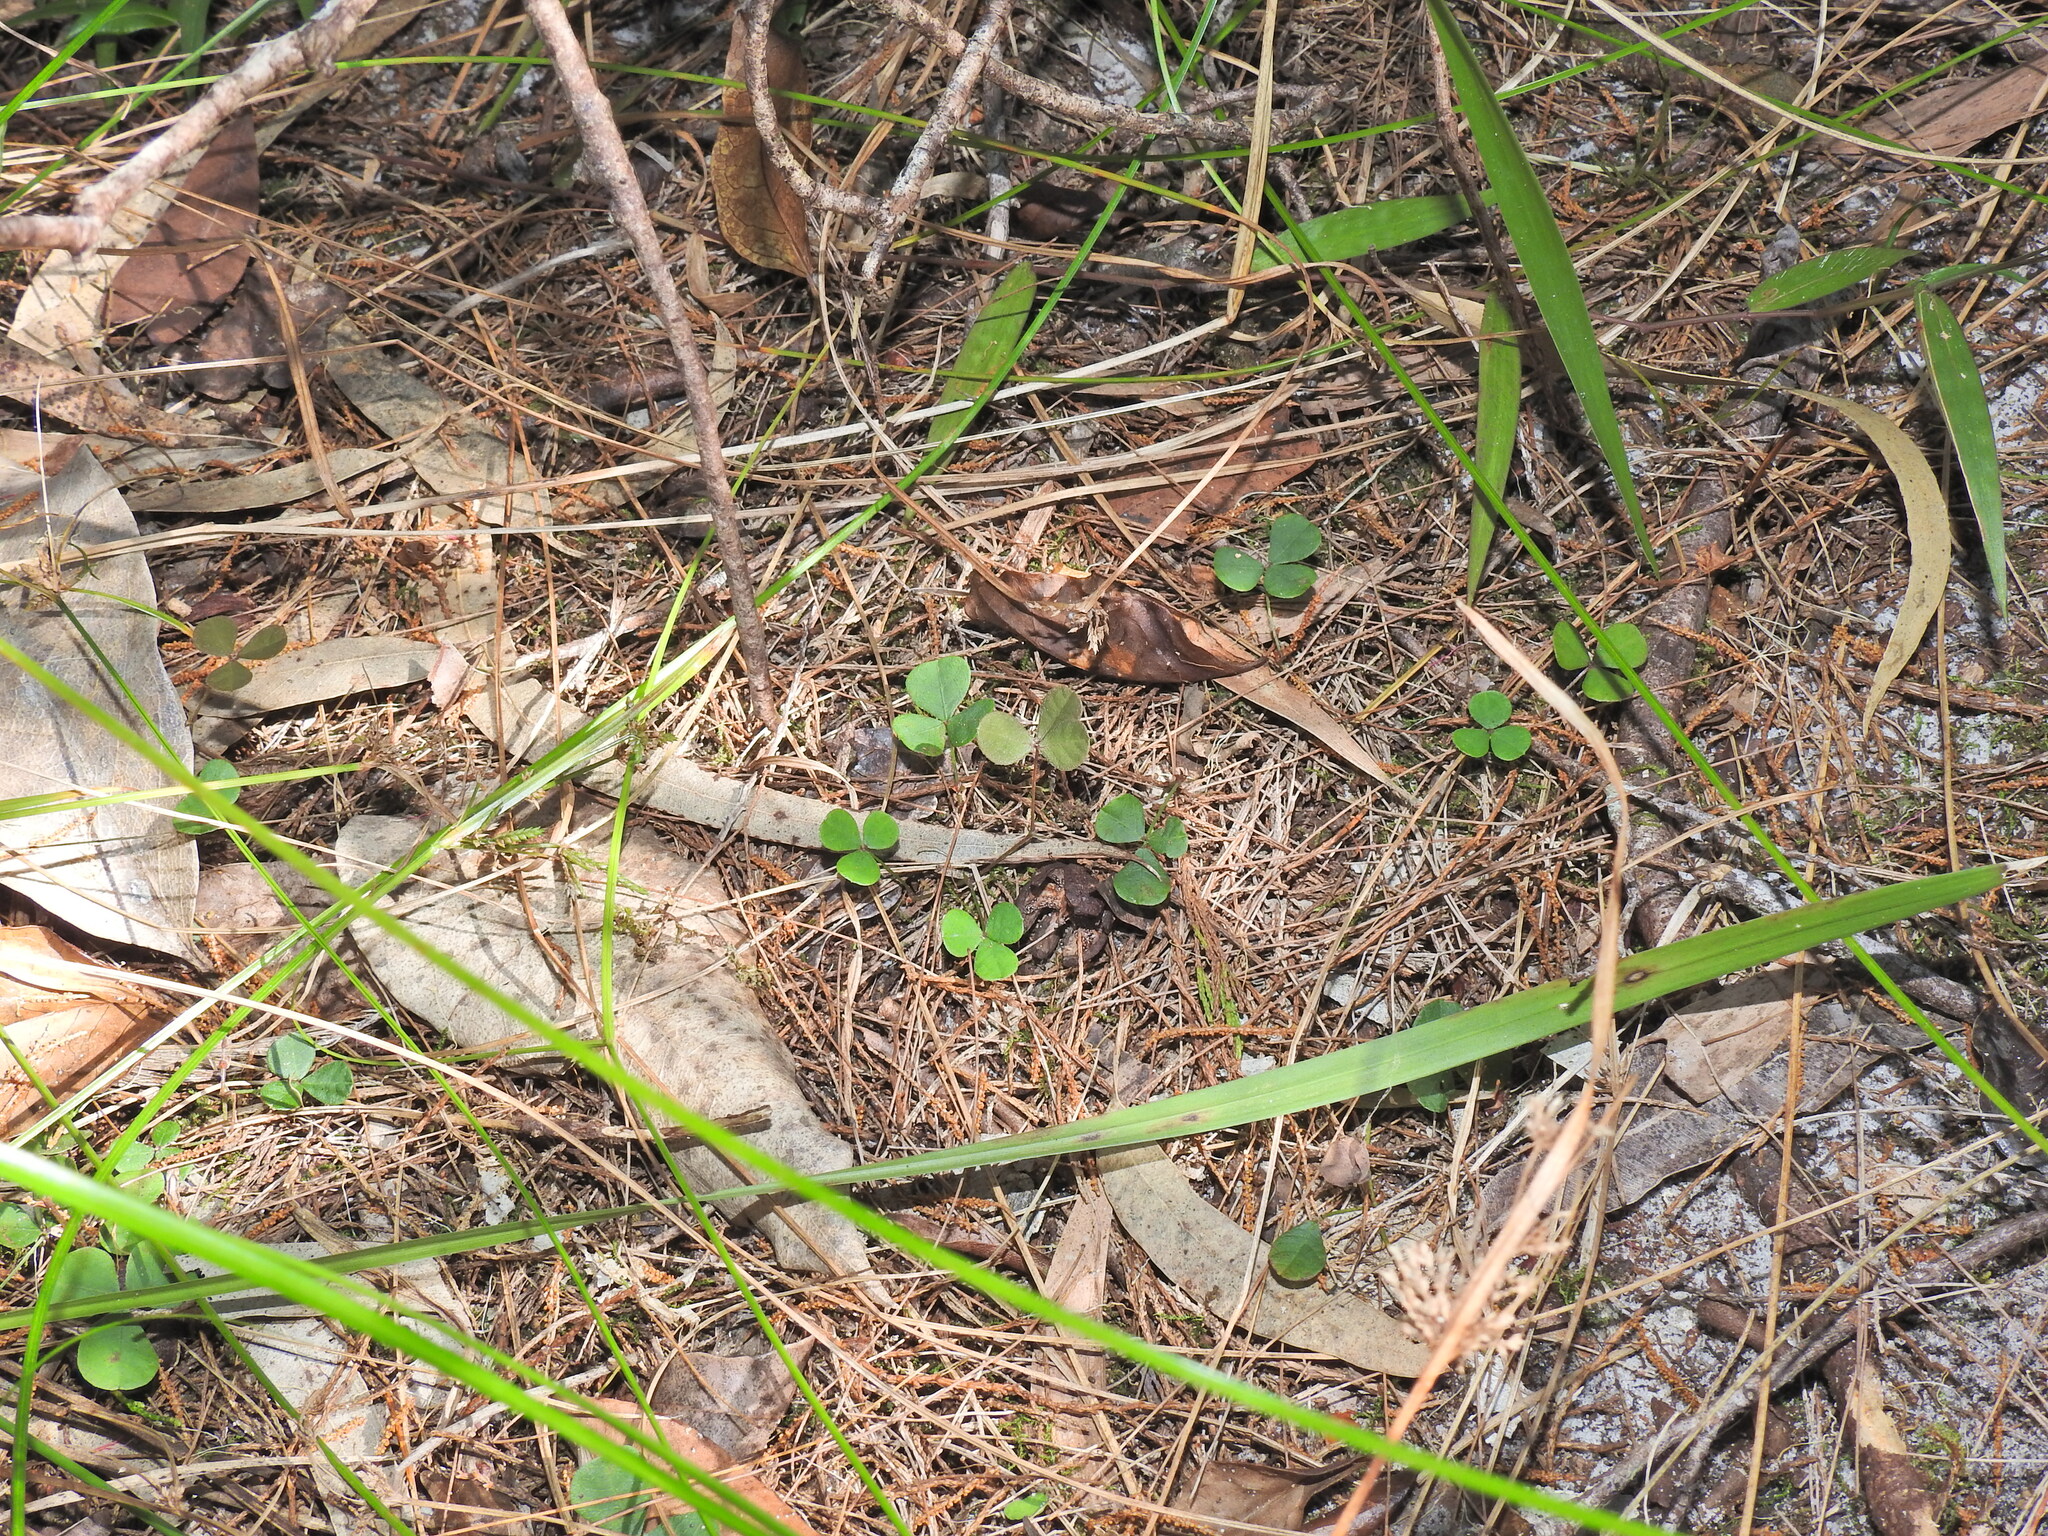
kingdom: Plantae
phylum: Tracheophyta
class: Magnoliopsida
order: Fabales
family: Fabaceae
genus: Pullenia
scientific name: Pullenia gunnii
